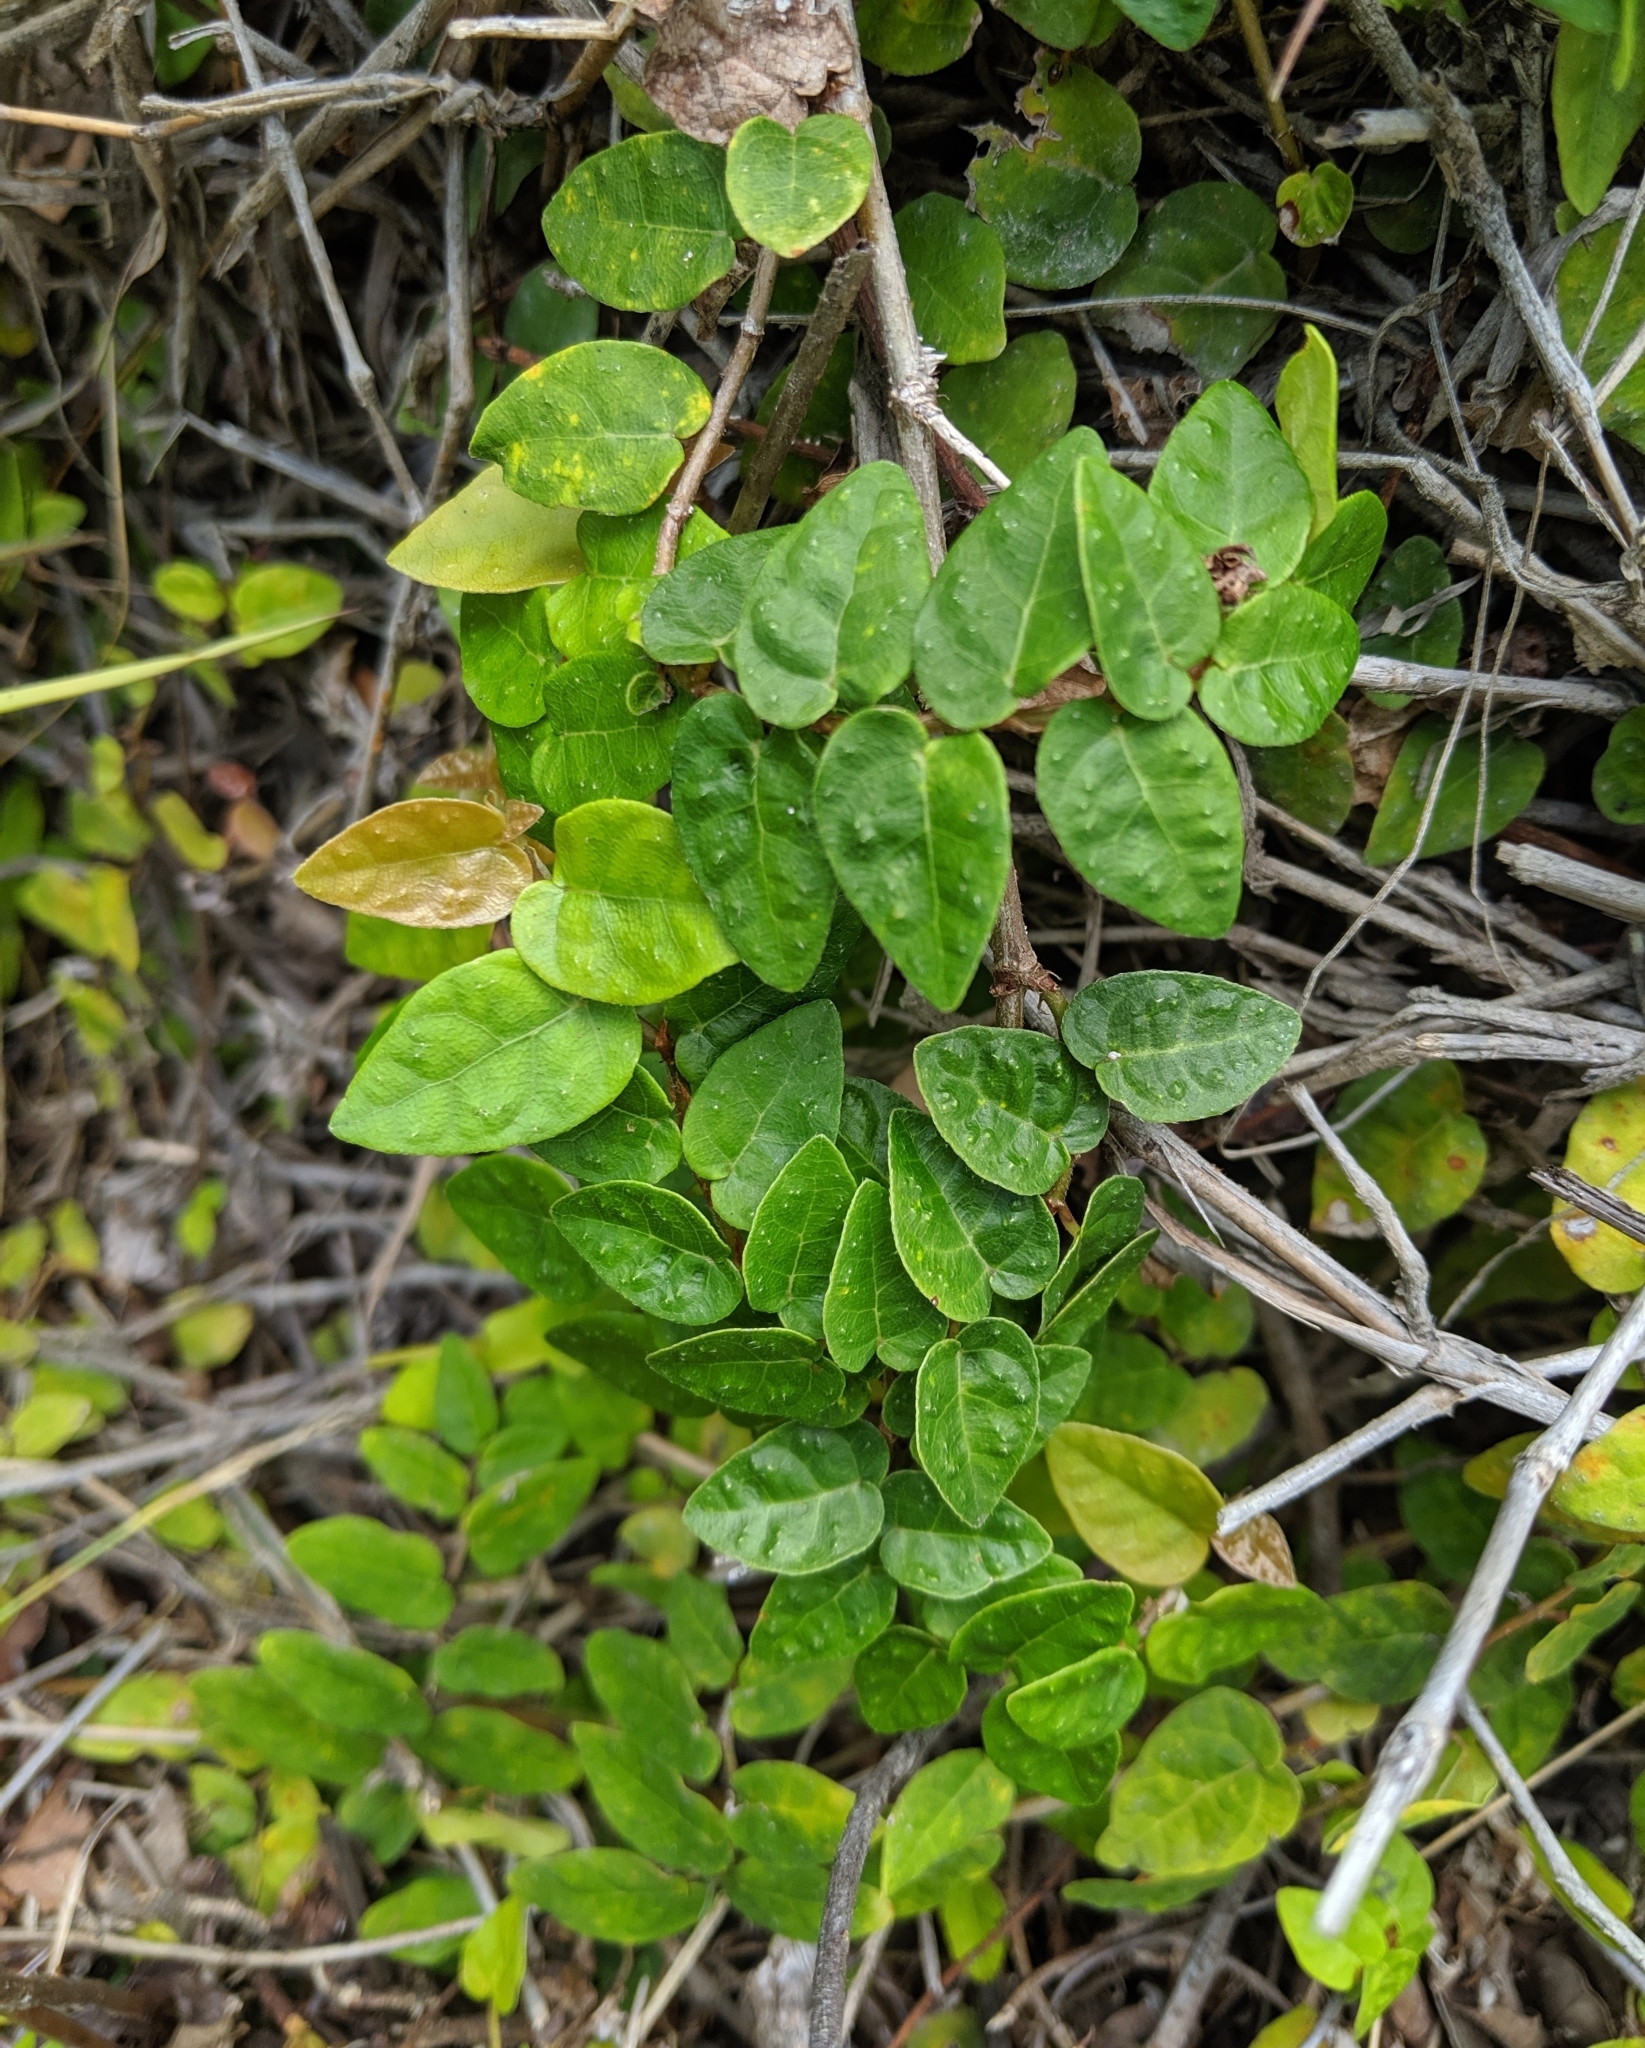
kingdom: Plantae
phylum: Tracheophyta
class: Magnoliopsida
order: Rosales
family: Moraceae
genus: Ficus
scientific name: Ficus pumila
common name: Climbingfig
